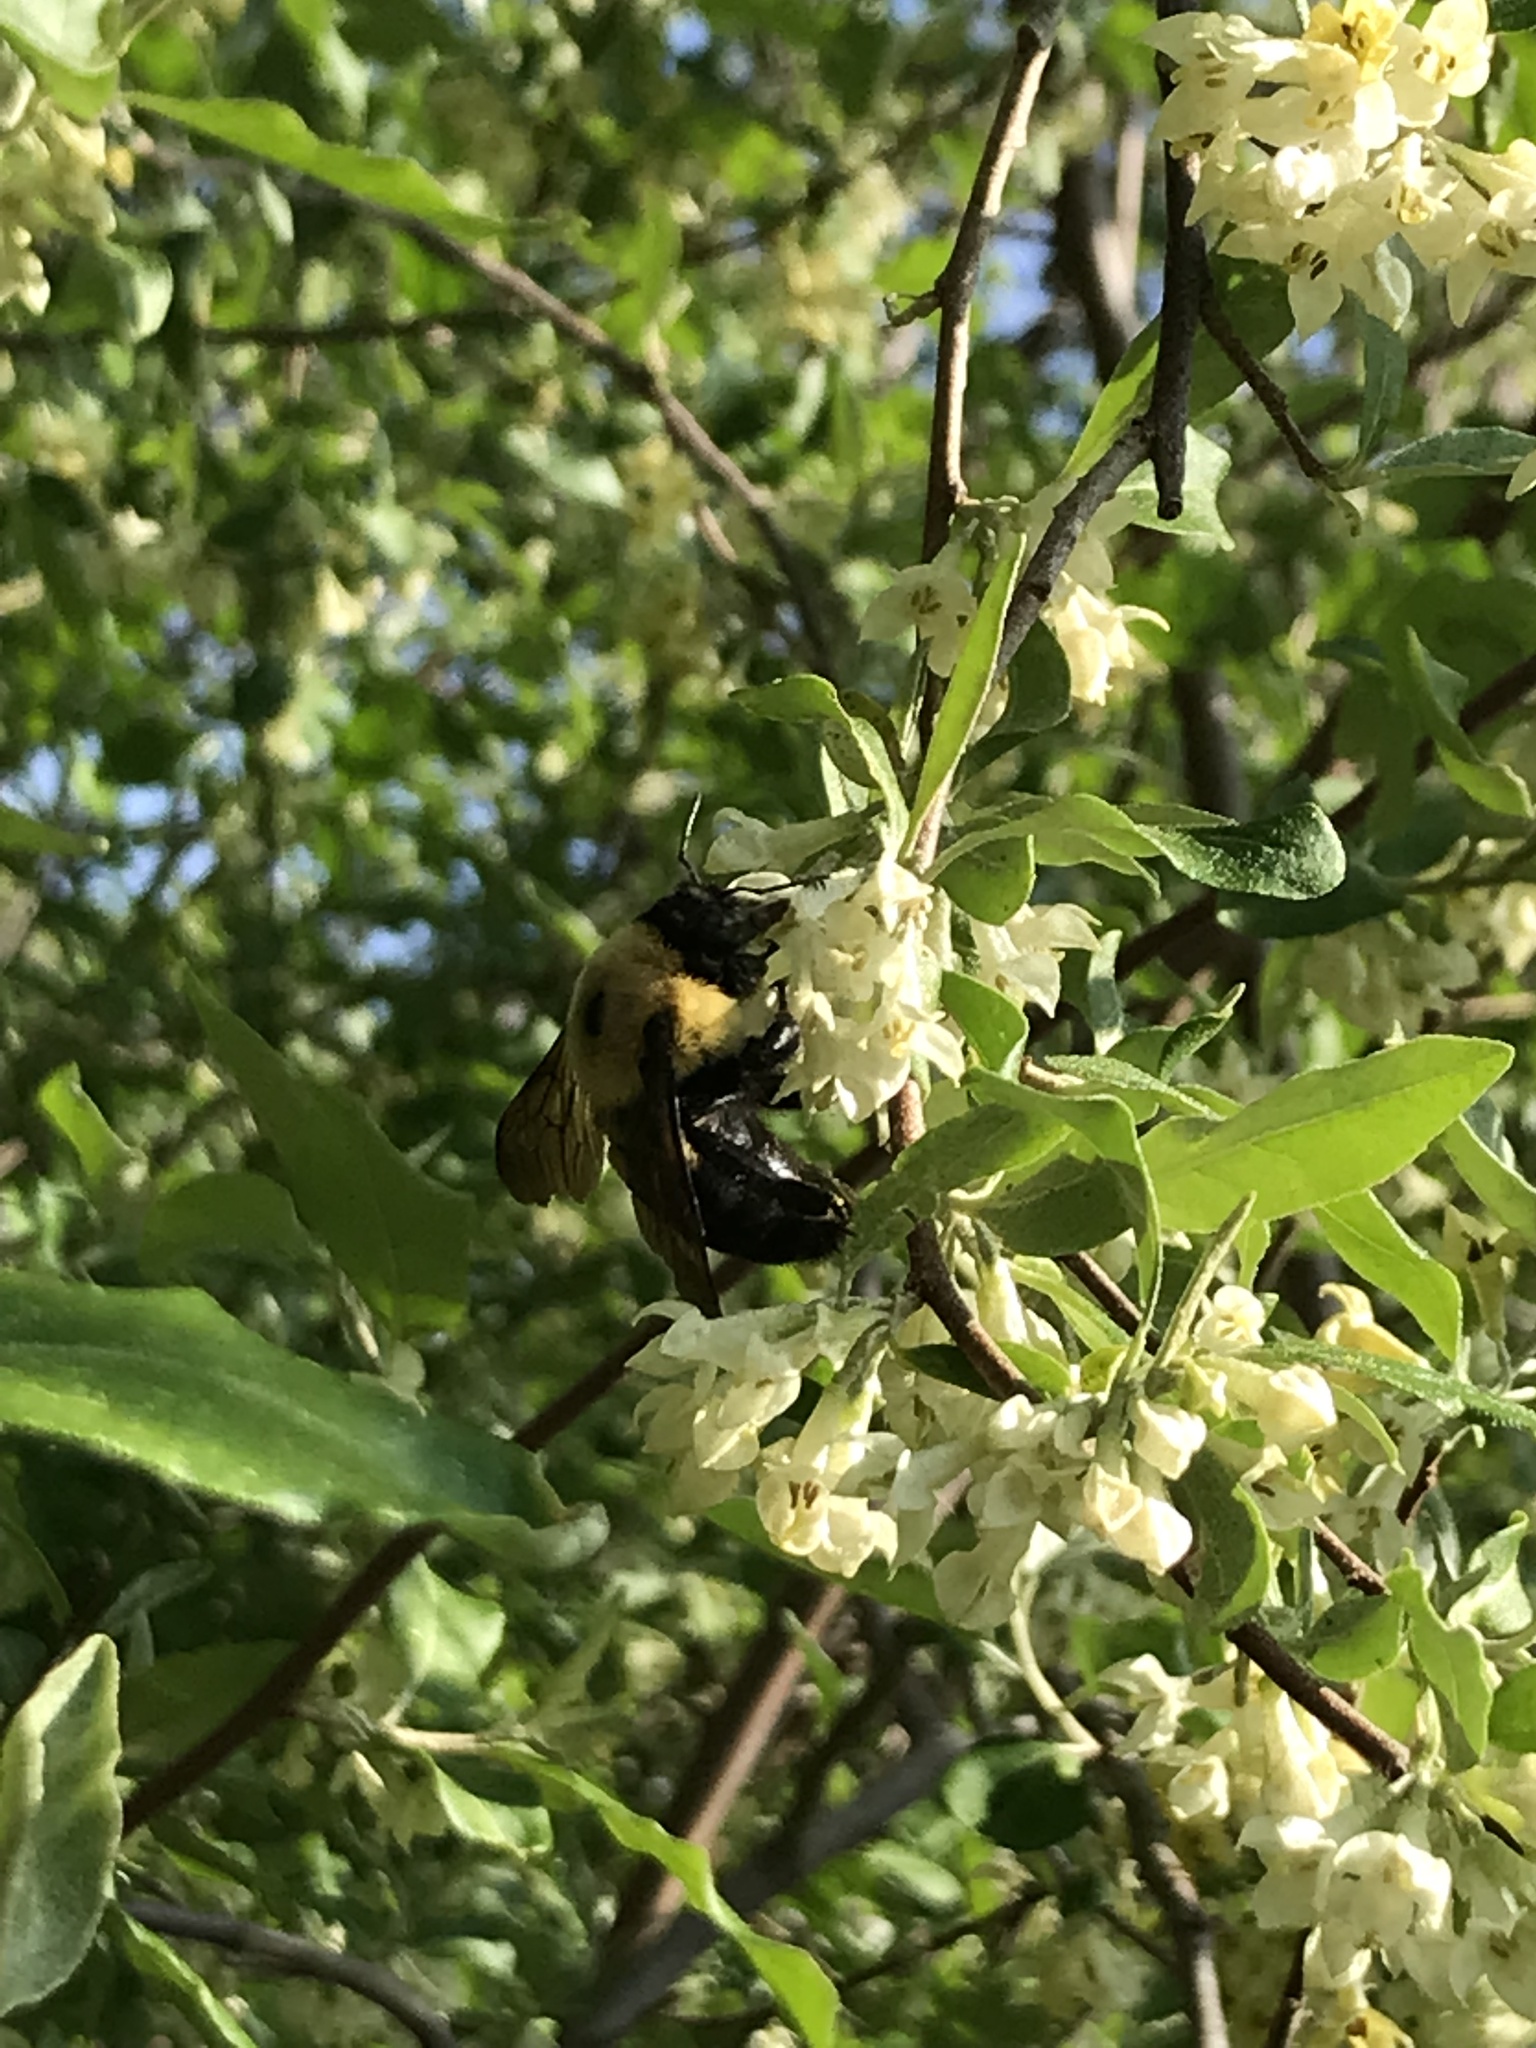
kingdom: Animalia
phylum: Arthropoda
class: Insecta
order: Hymenoptera
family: Apidae
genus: Bombus
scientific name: Bombus griseocollis
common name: Brown-belted bumble bee
